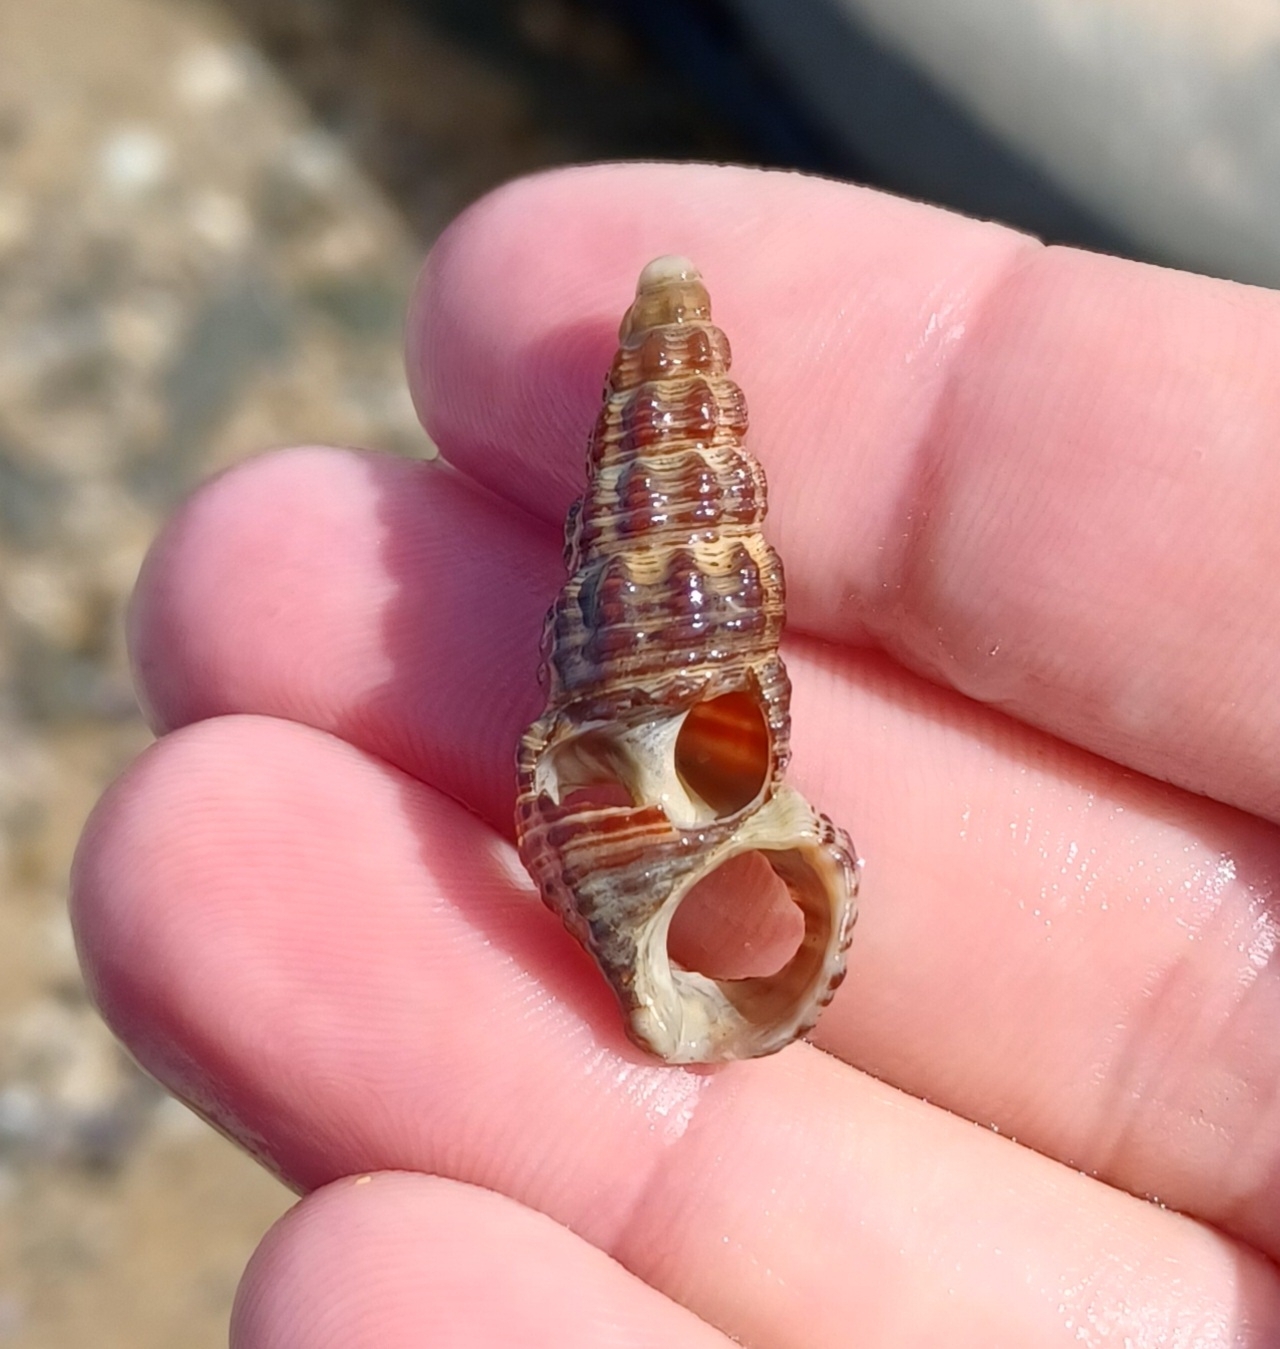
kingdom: Animalia
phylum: Mollusca
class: Gastropoda
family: Batillariidae
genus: Batillaria
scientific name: Batillaria australis
